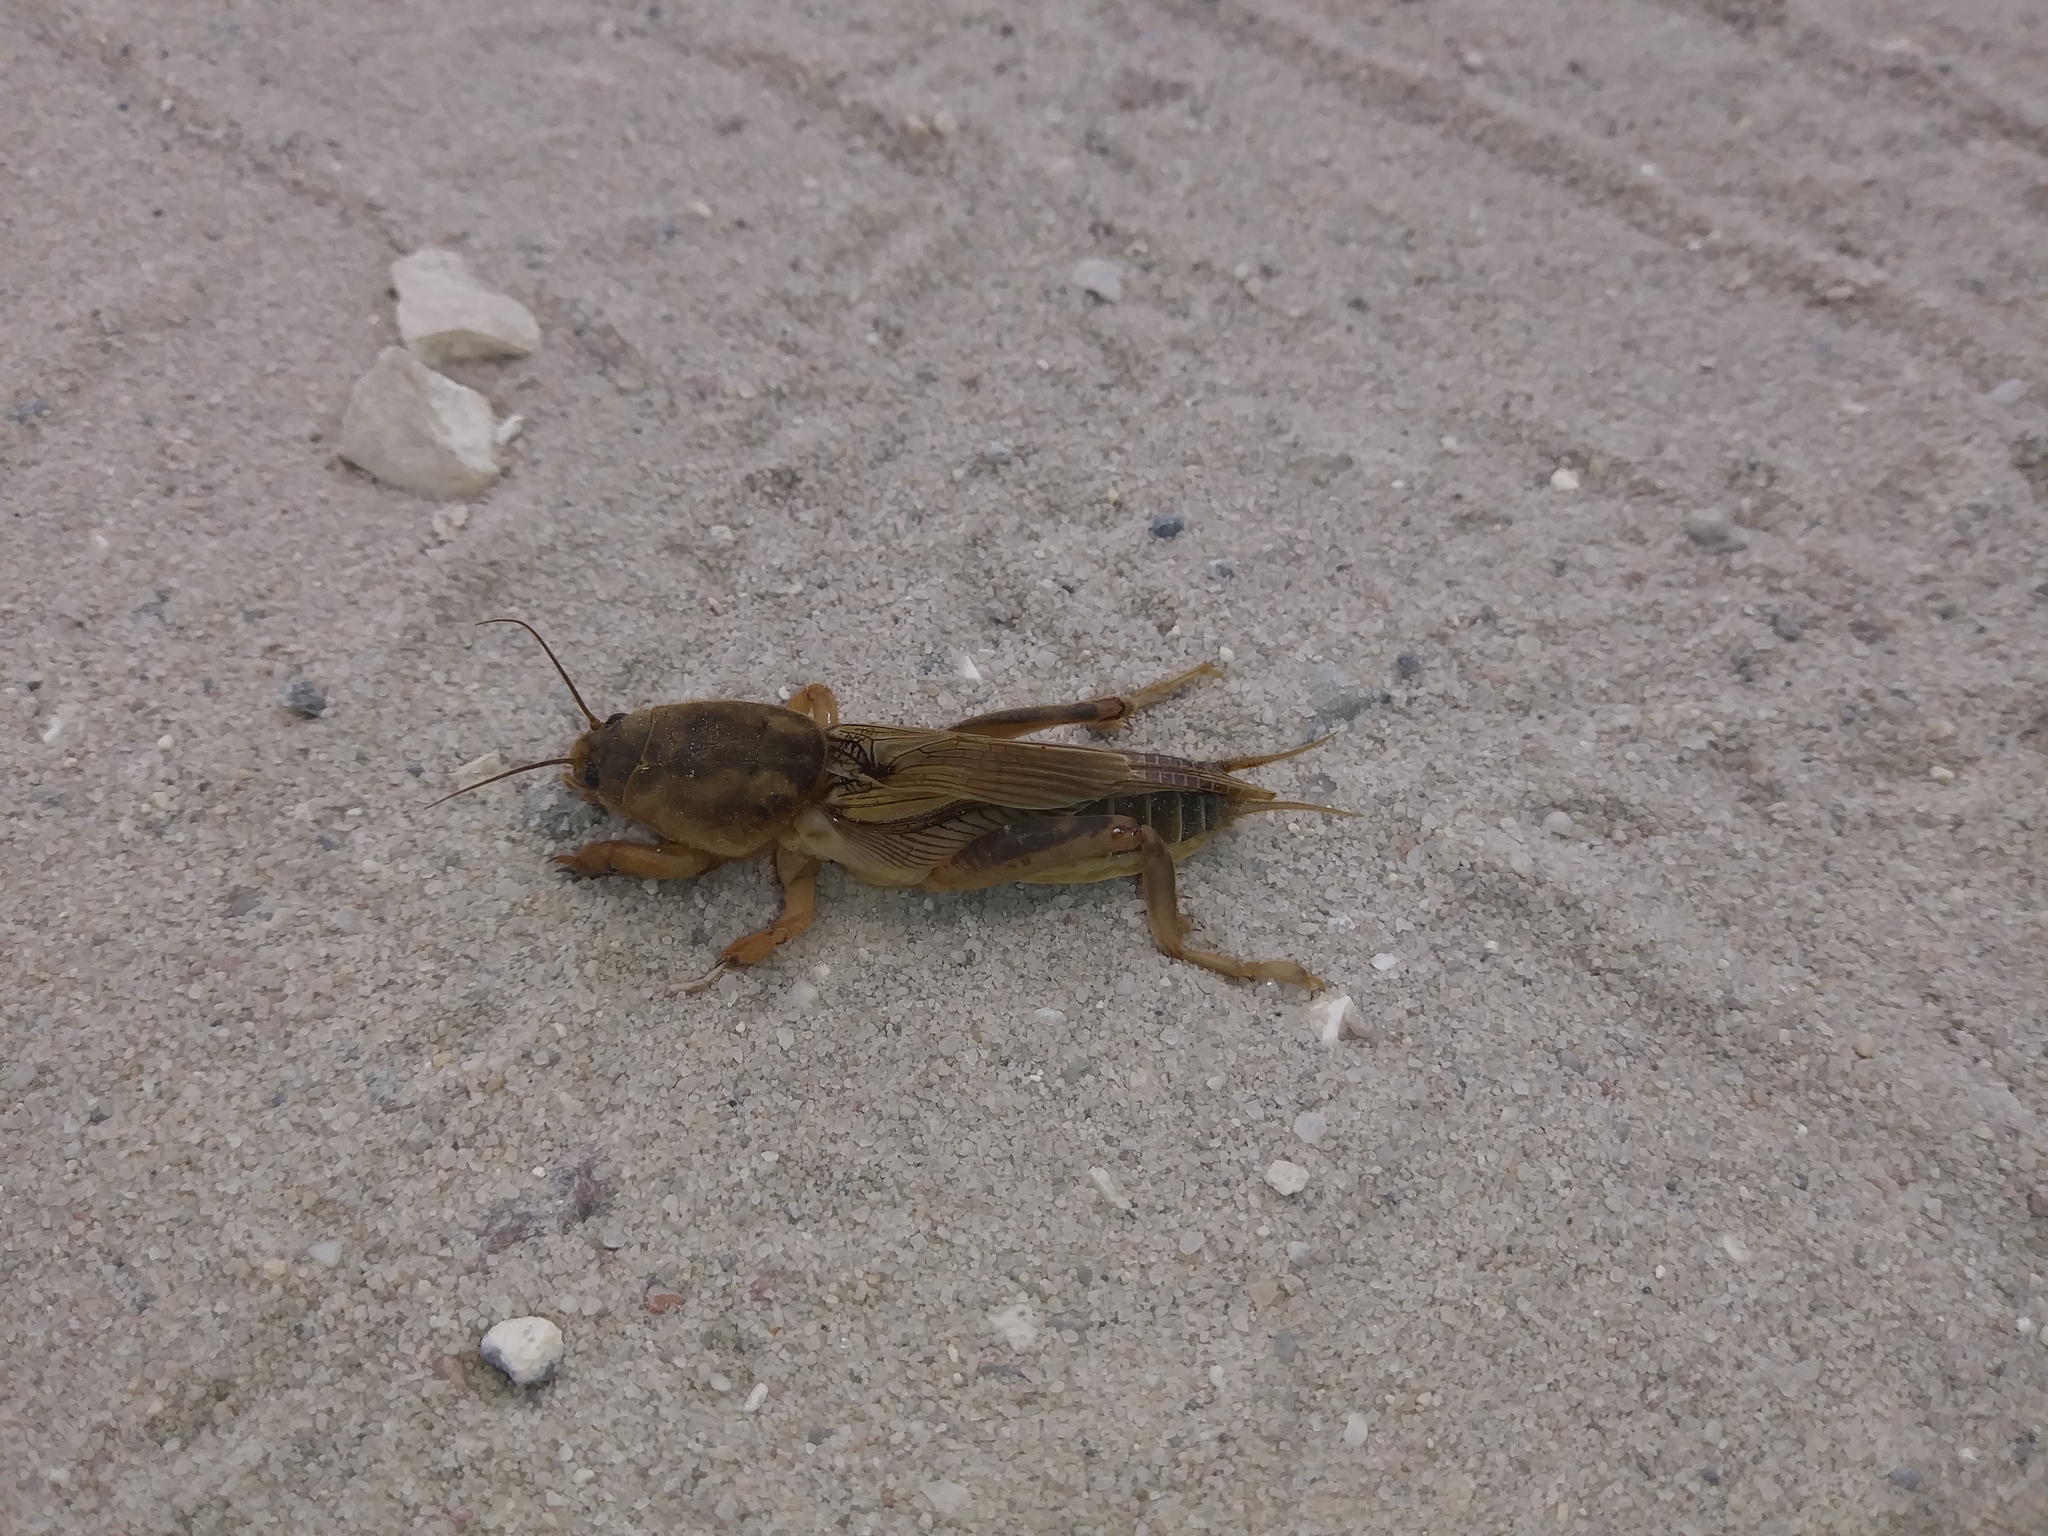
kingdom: Animalia
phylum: Arthropoda
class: Insecta
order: Orthoptera
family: Gryllotalpidae
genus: Neoscapteriscus
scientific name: Neoscapteriscus vicinus
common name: Tawny mole cricket
